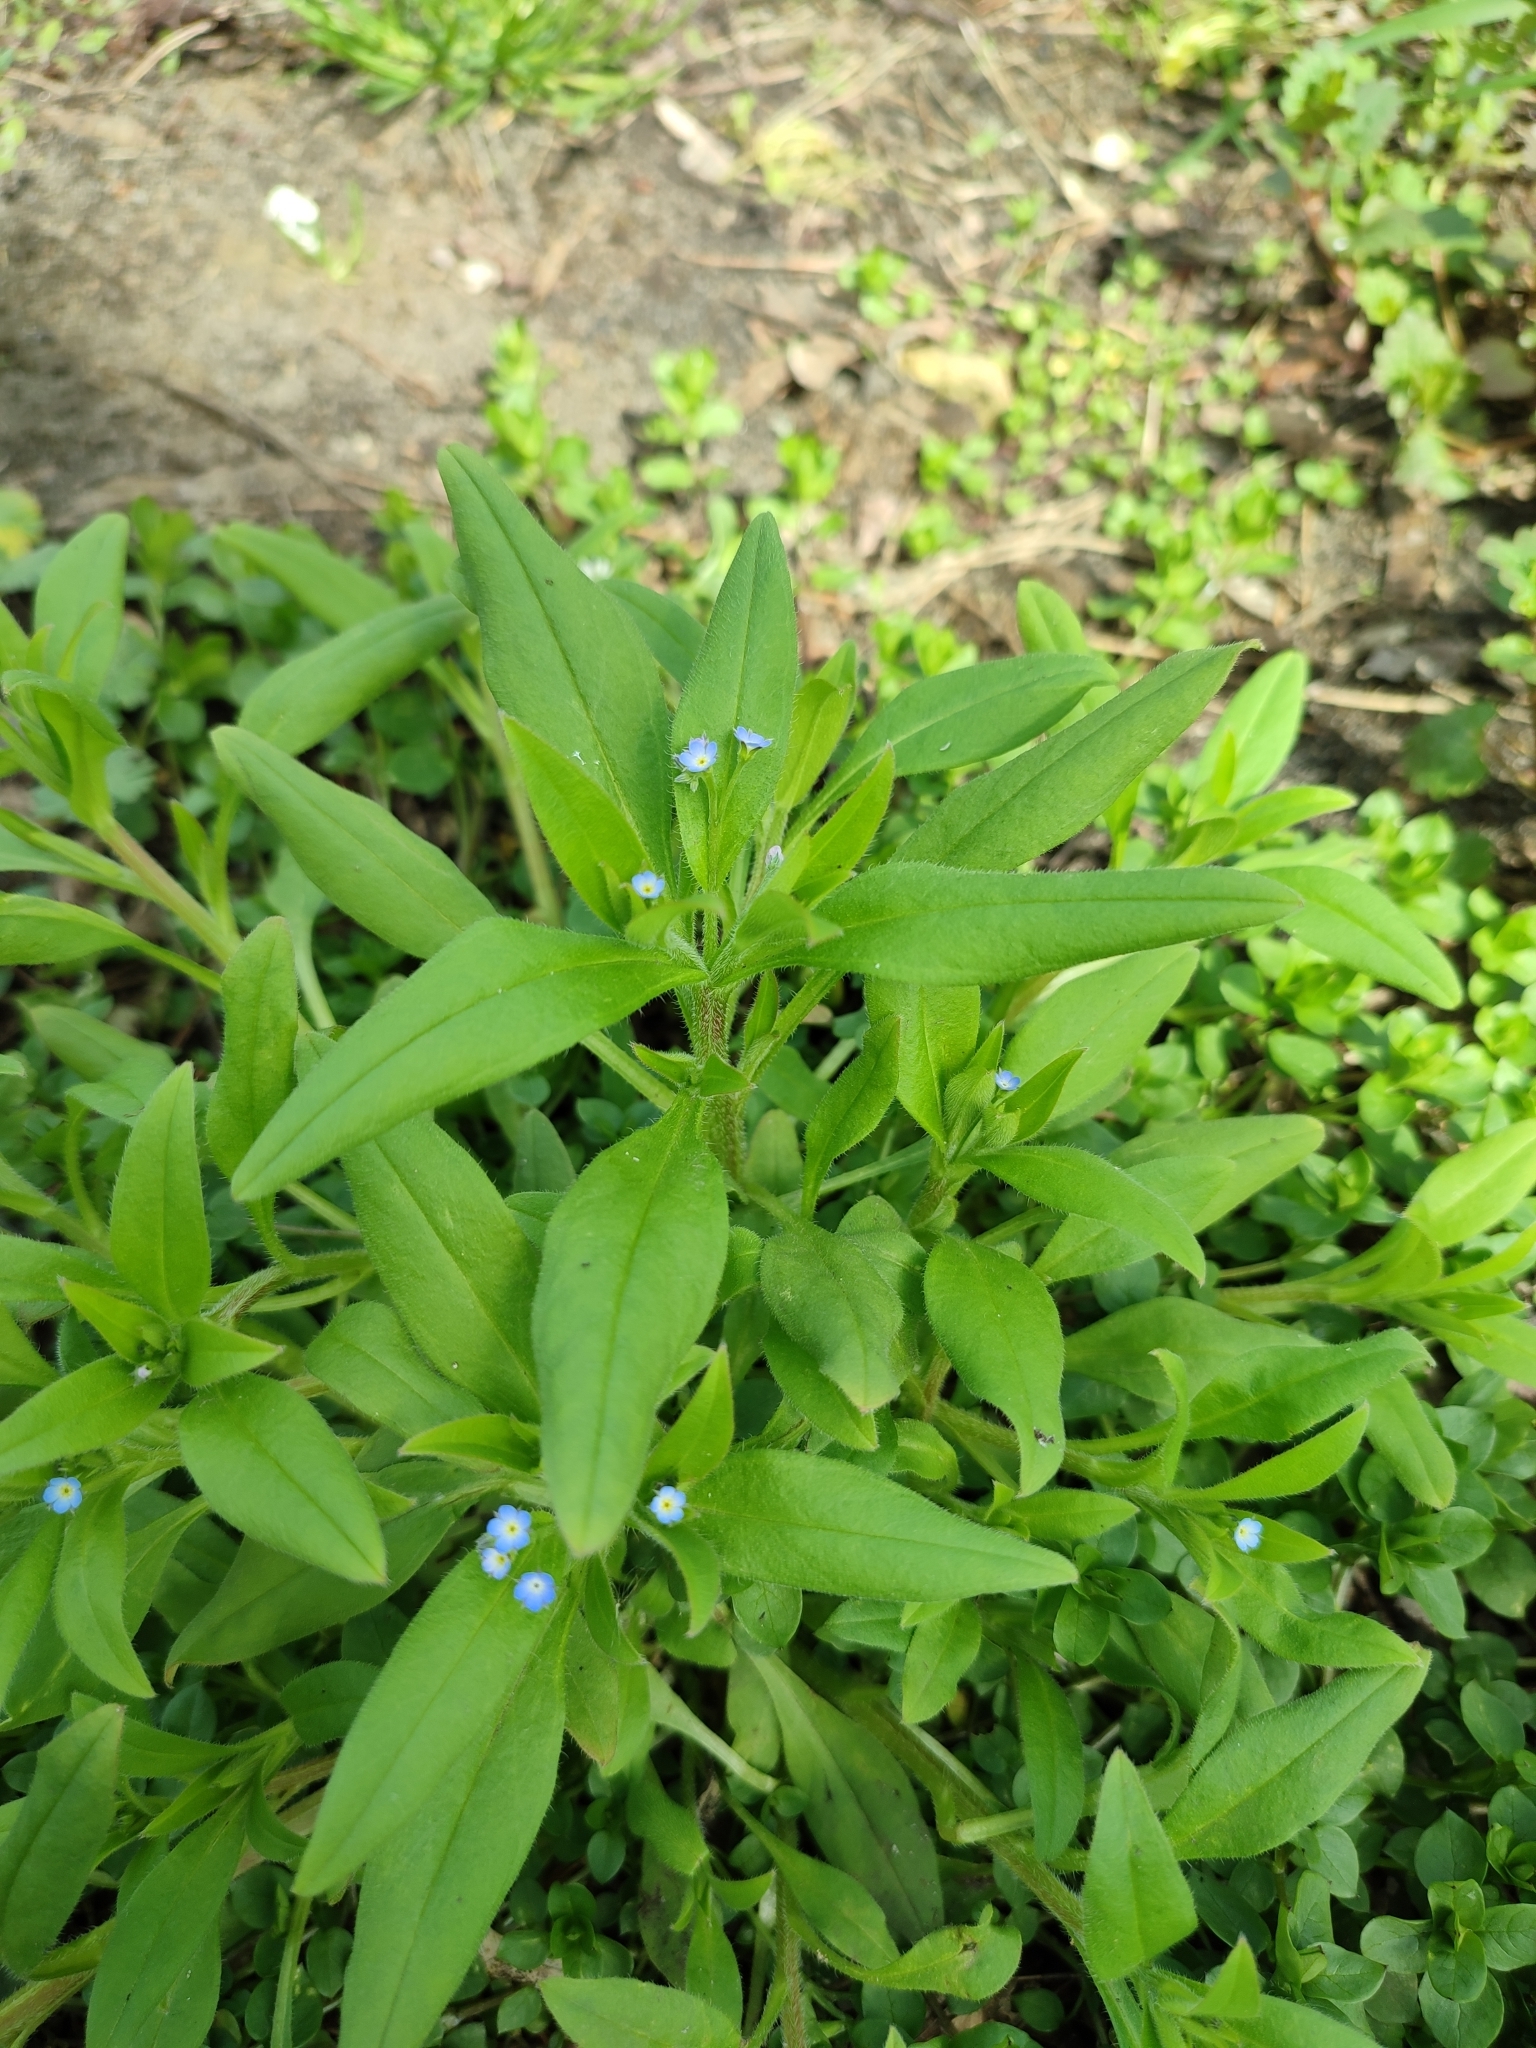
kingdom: Plantae
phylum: Tracheophyta
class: Magnoliopsida
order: Boraginales
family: Boraginaceae
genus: Myosotis
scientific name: Myosotis sparsiflora
